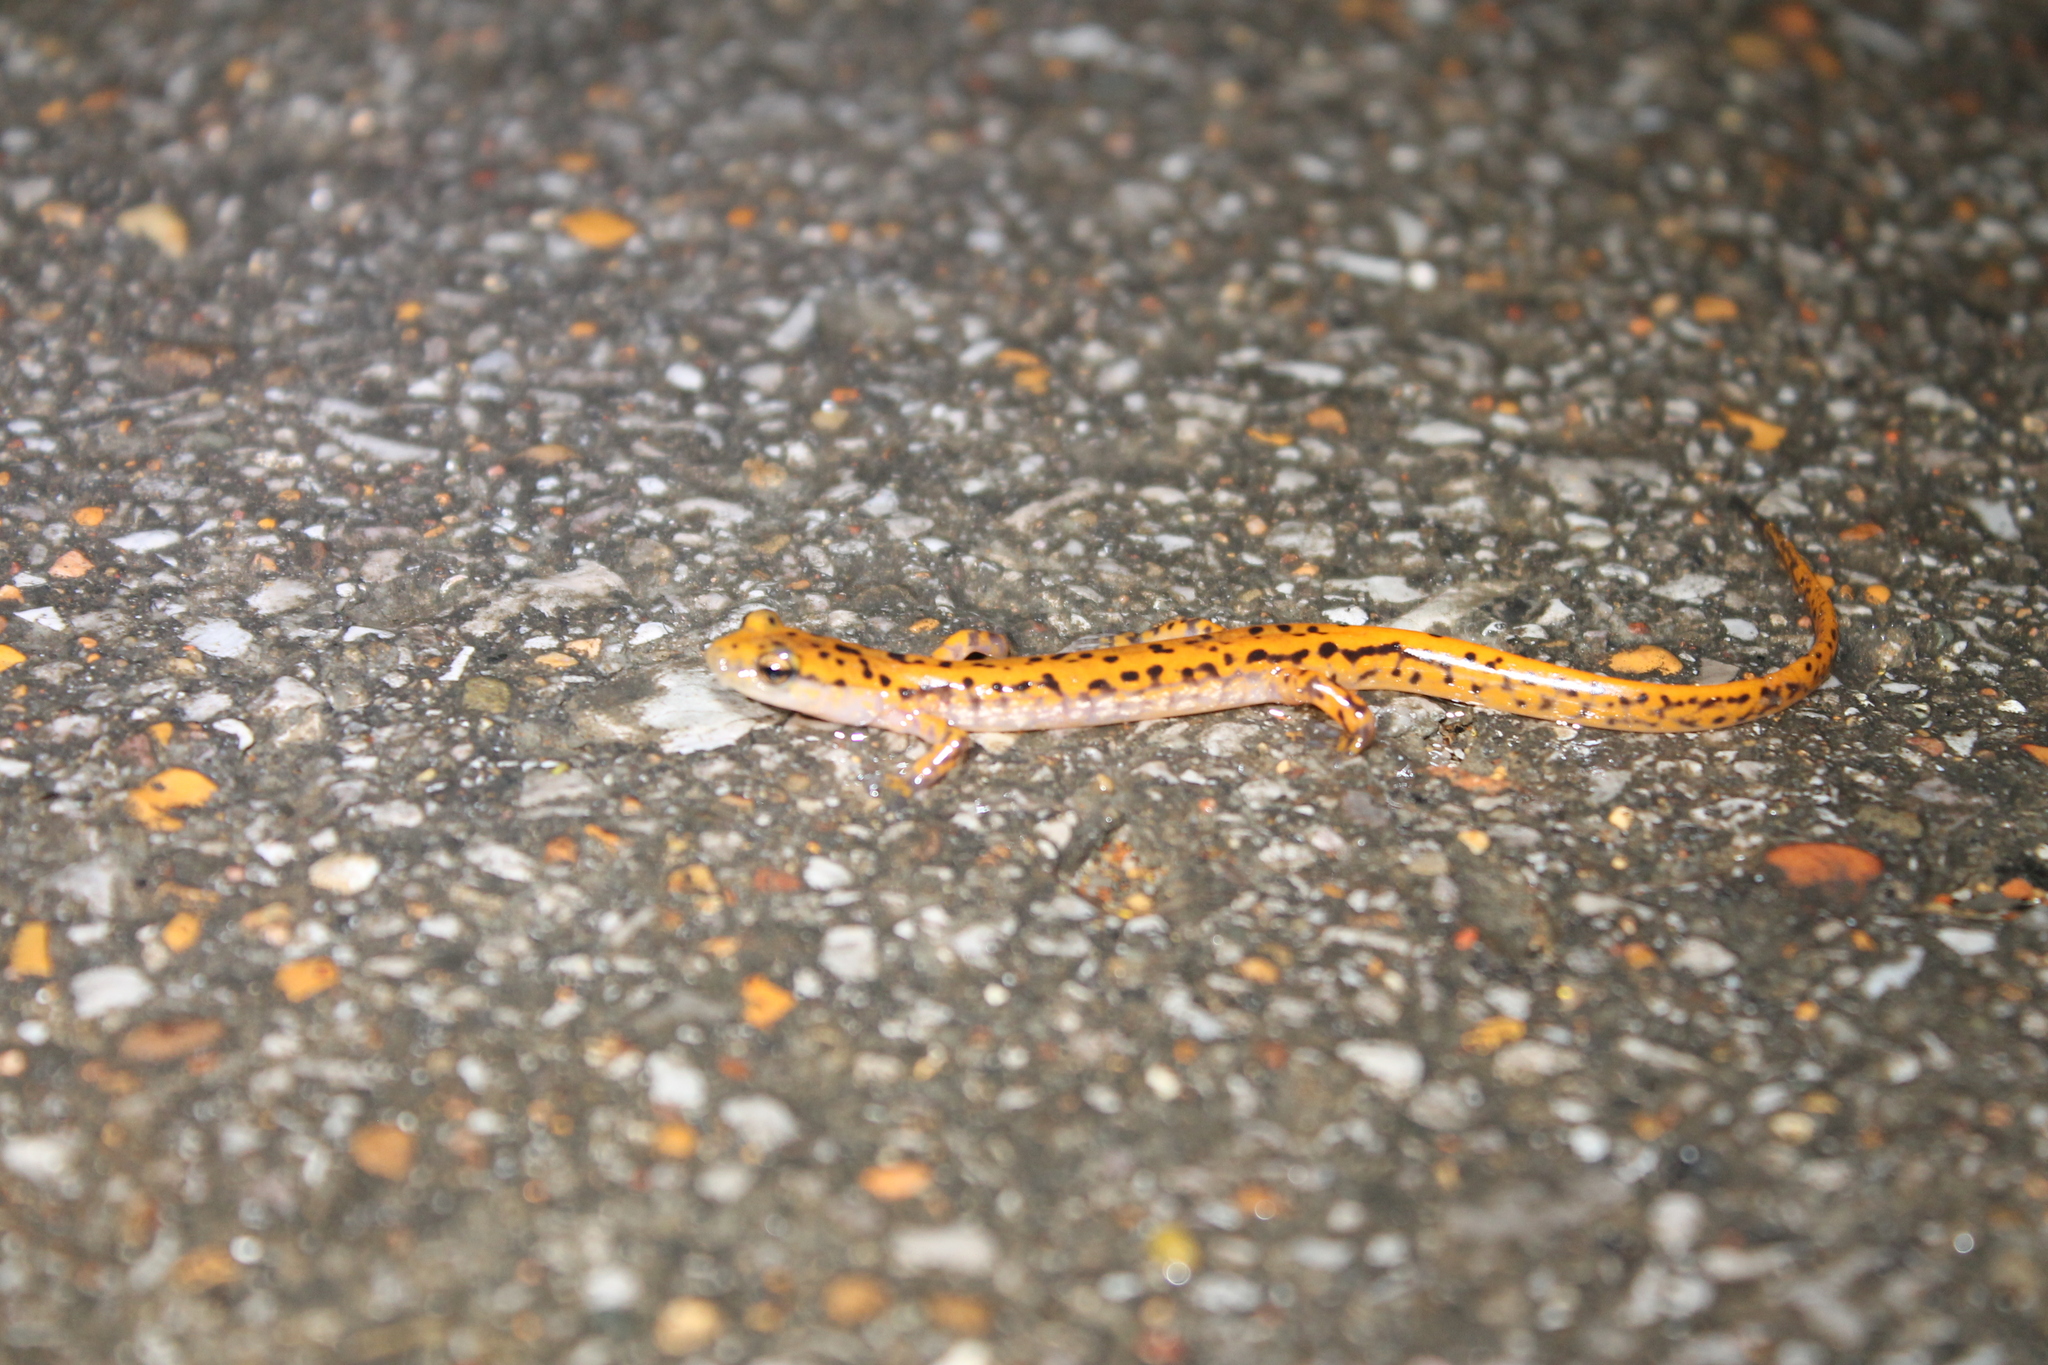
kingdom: Animalia
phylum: Chordata
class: Amphibia
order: Caudata
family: Plethodontidae
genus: Eurycea
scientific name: Eurycea lucifuga
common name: Cave salamander
